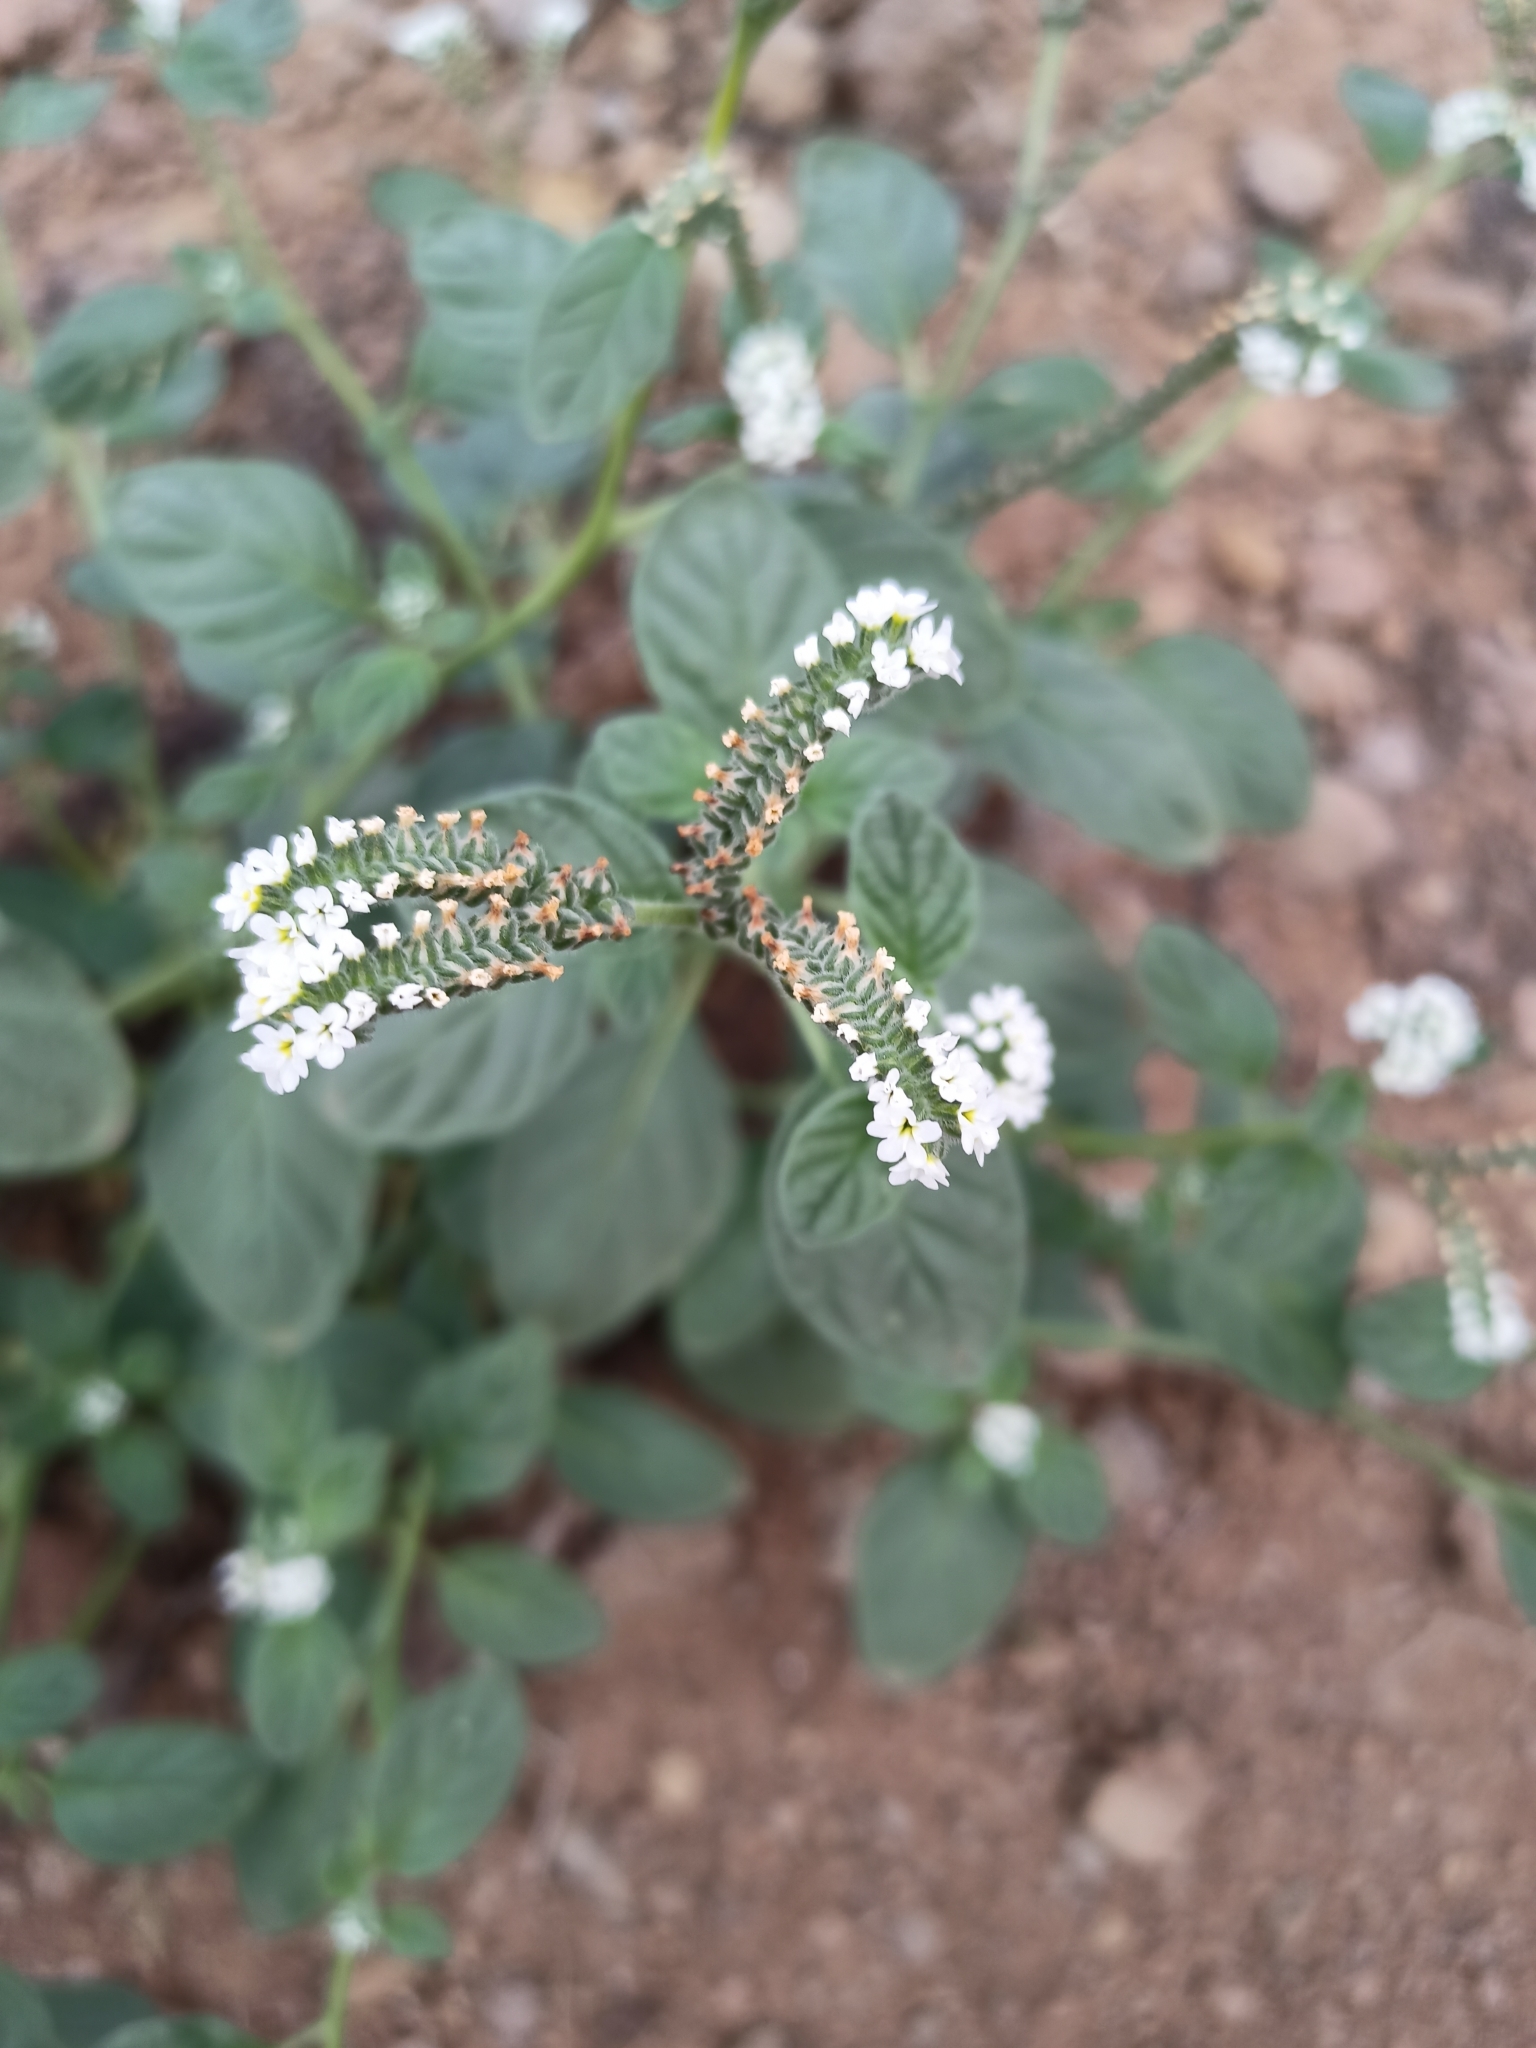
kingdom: Plantae
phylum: Tracheophyta
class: Magnoliopsida
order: Boraginales
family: Heliotropiaceae
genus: Heliotropium
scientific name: Heliotropium europaeum
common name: European heliotrope
